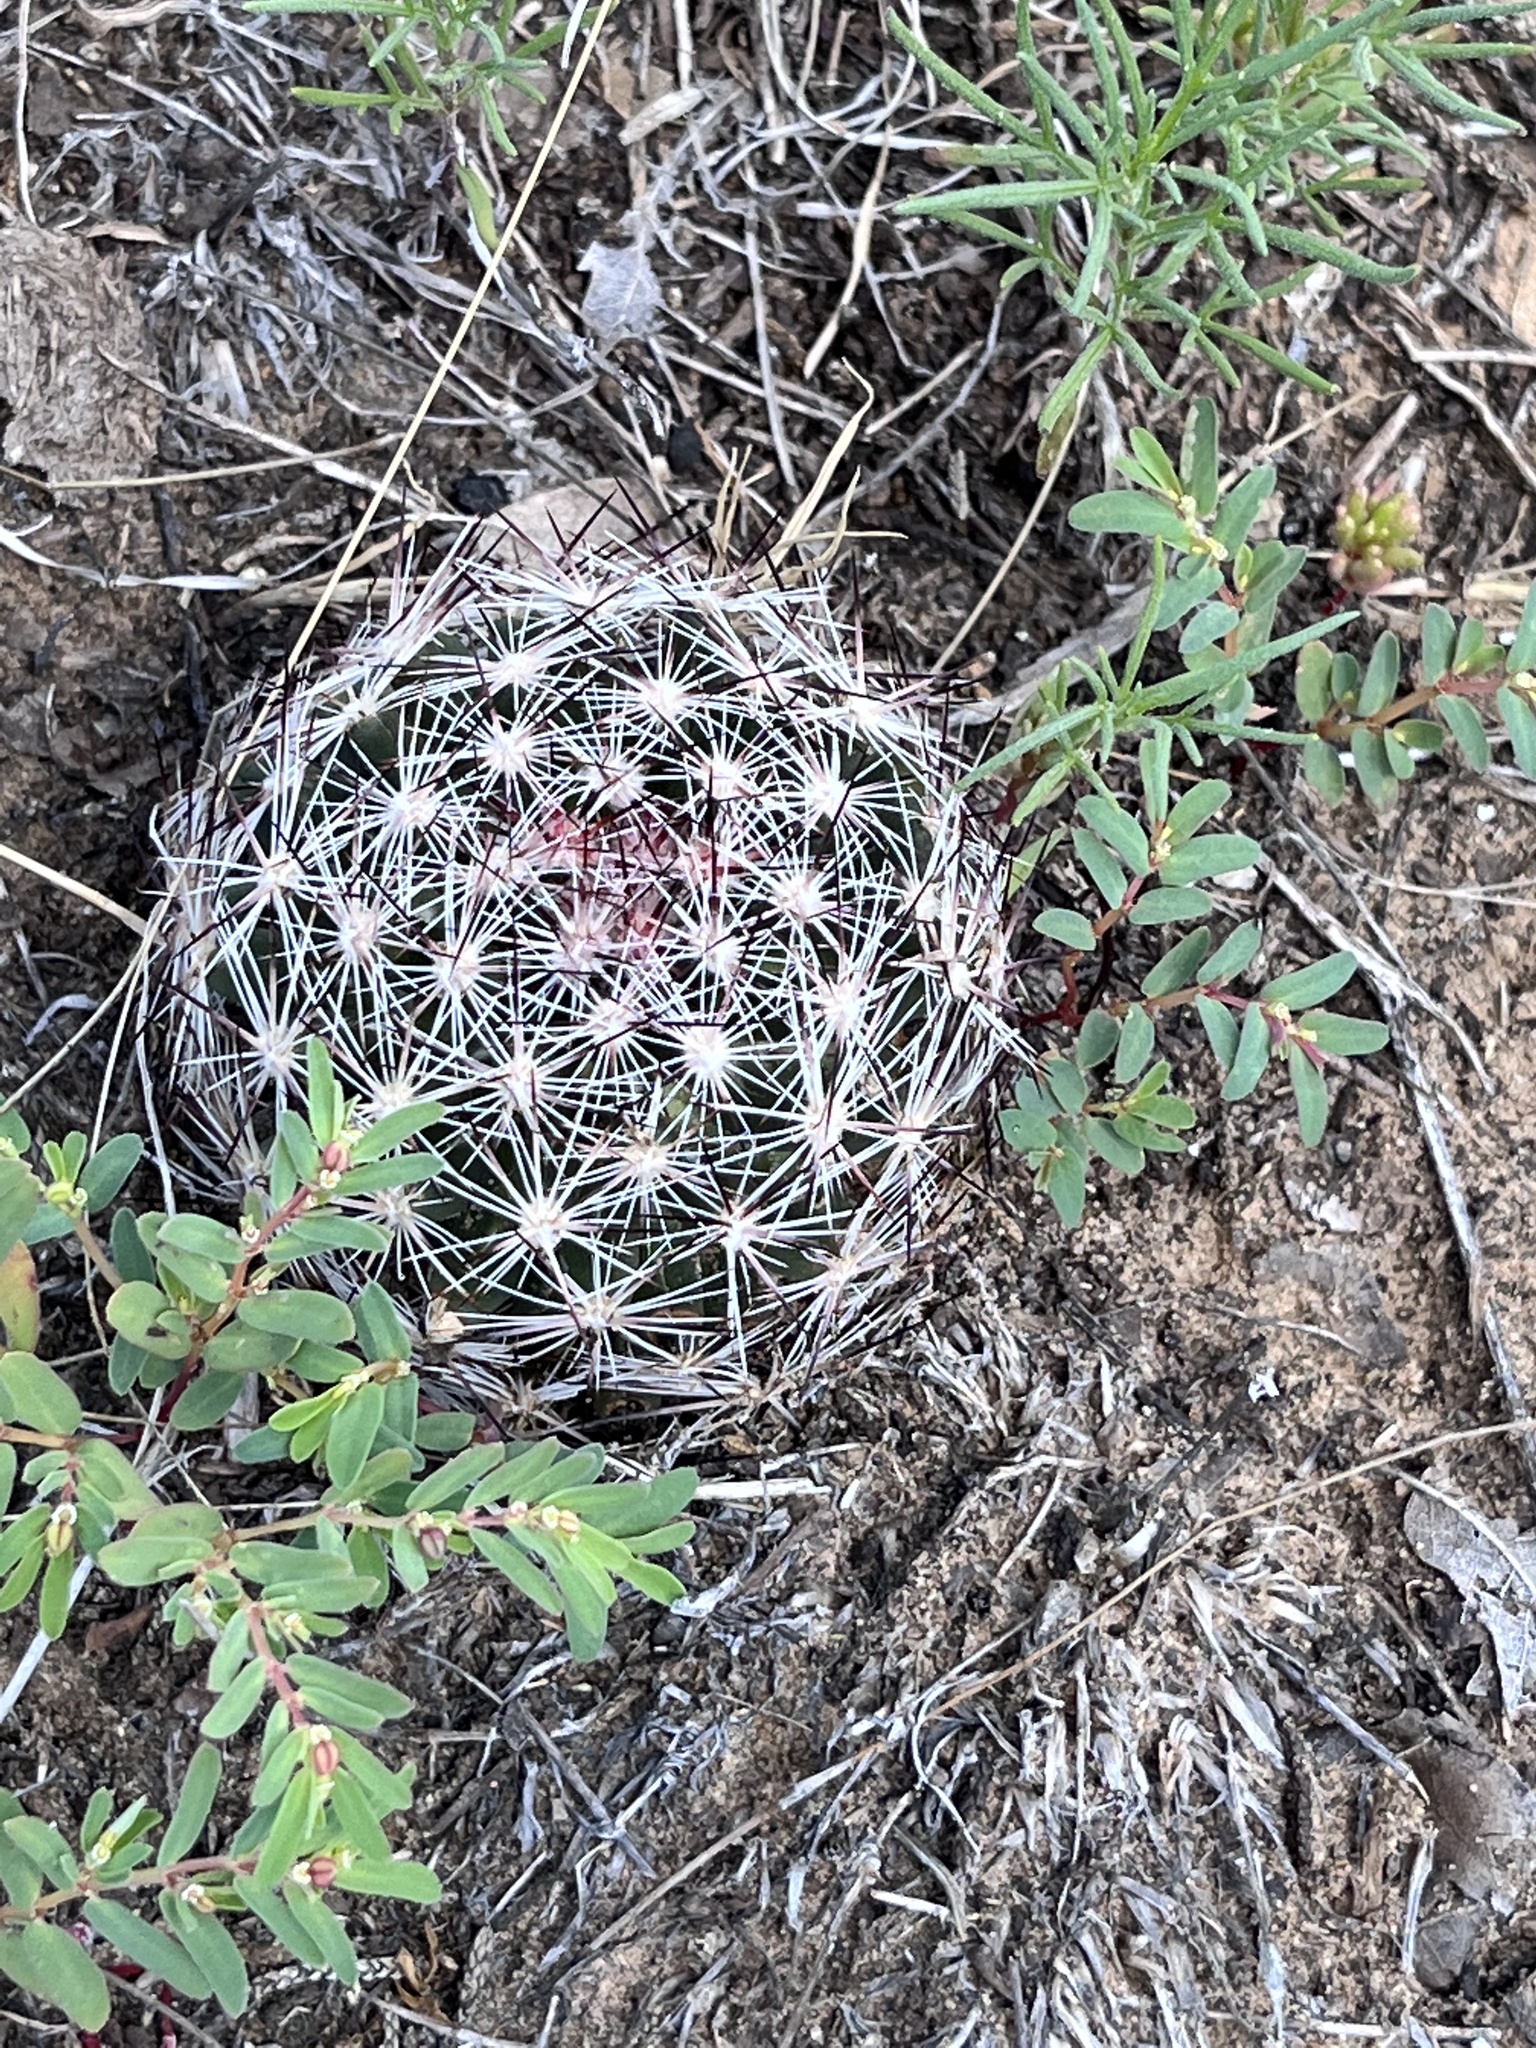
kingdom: Plantae
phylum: Tracheophyta
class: Magnoliopsida
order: Caryophyllales
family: Cactaceae
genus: Pelecyphora
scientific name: Pelecyphora vivipara
